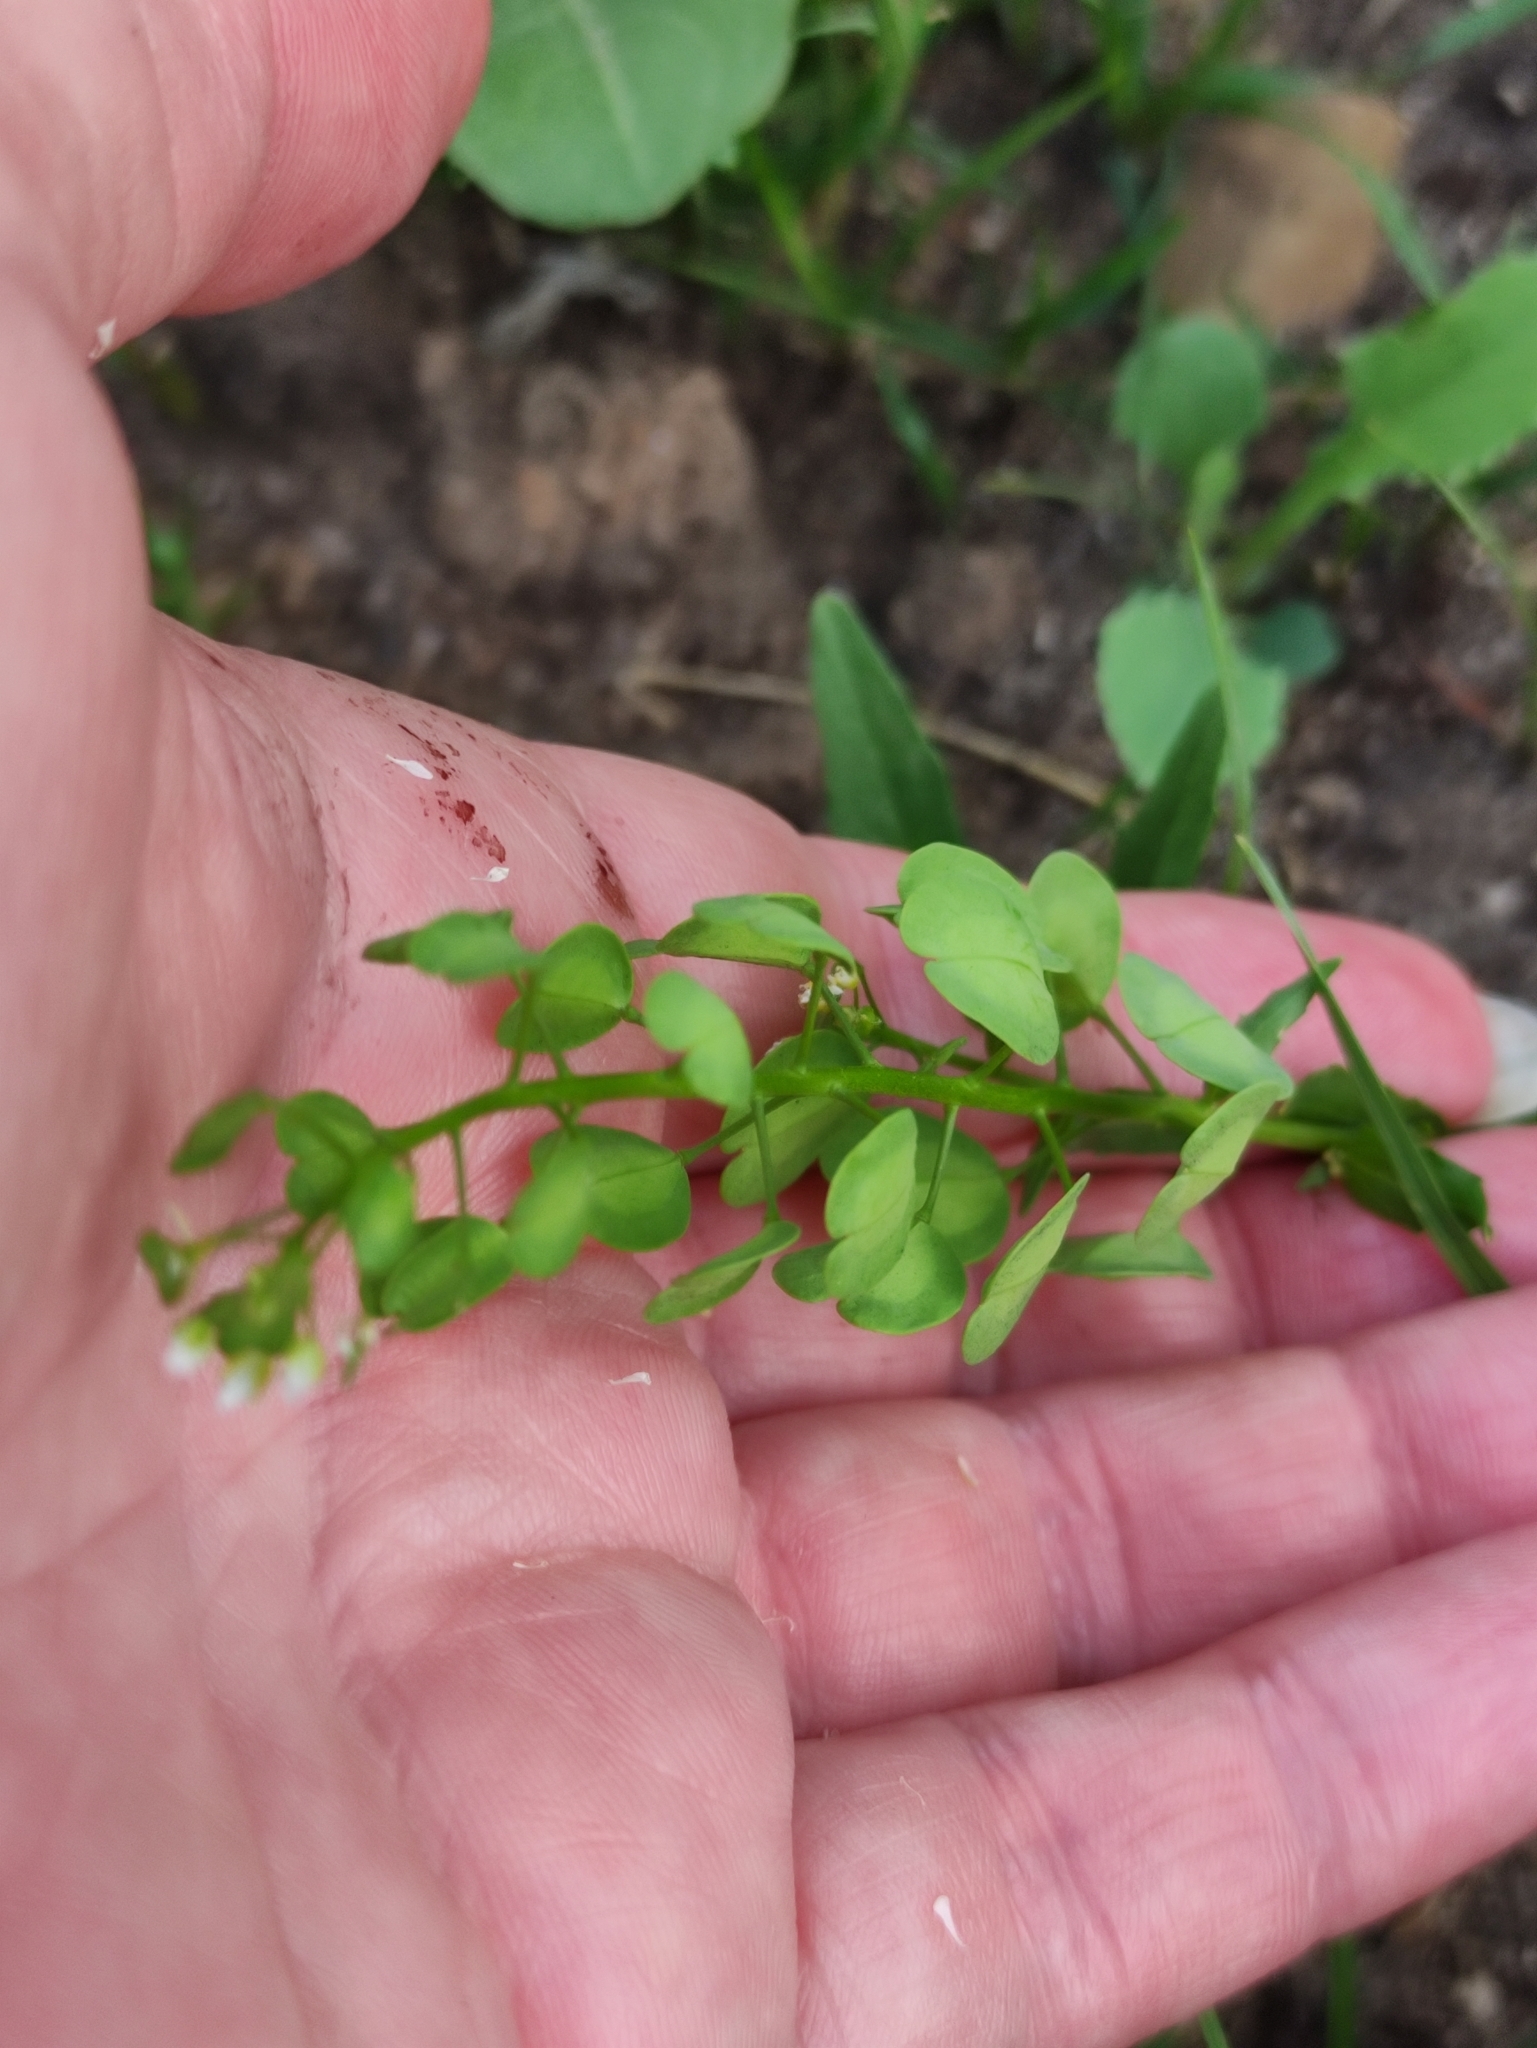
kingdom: Plantae
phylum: Tracheophyta
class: Magnoliopsida
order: Brassicales
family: Brassicaceae
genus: Thlaspi
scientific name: Thlaspi arvense
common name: Field pennycress
